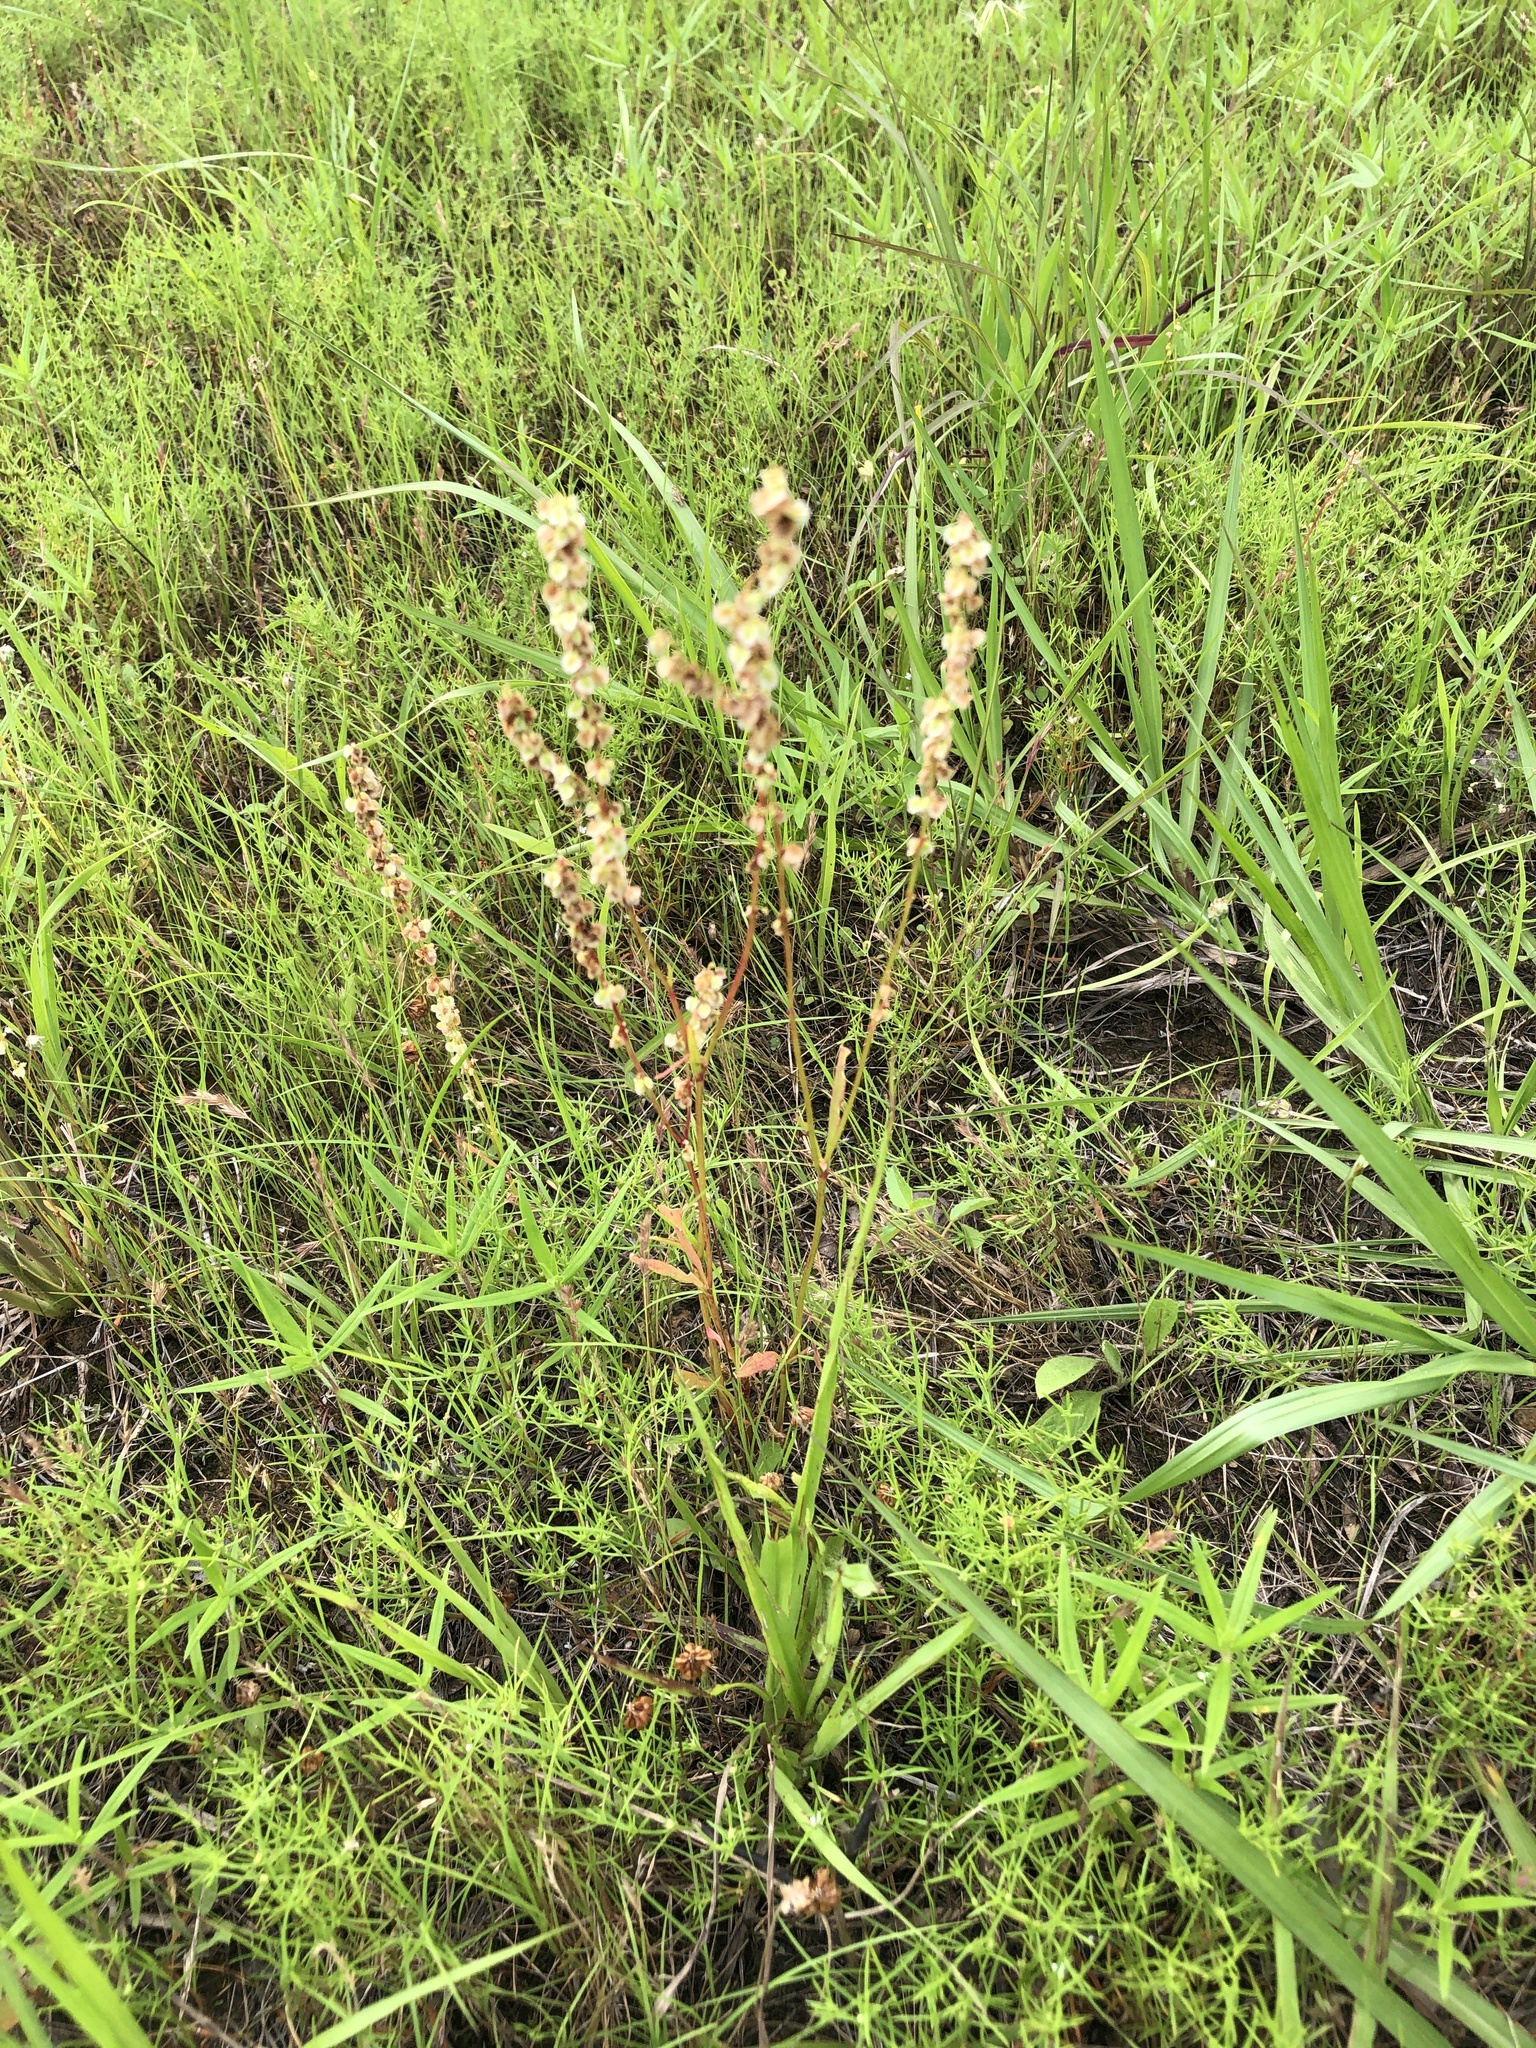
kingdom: Plantae
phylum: Tracheophyta
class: Magnoliopsida
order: Caryophyllales
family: Polygonaceae
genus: Rumex
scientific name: Rumex hastatulus
